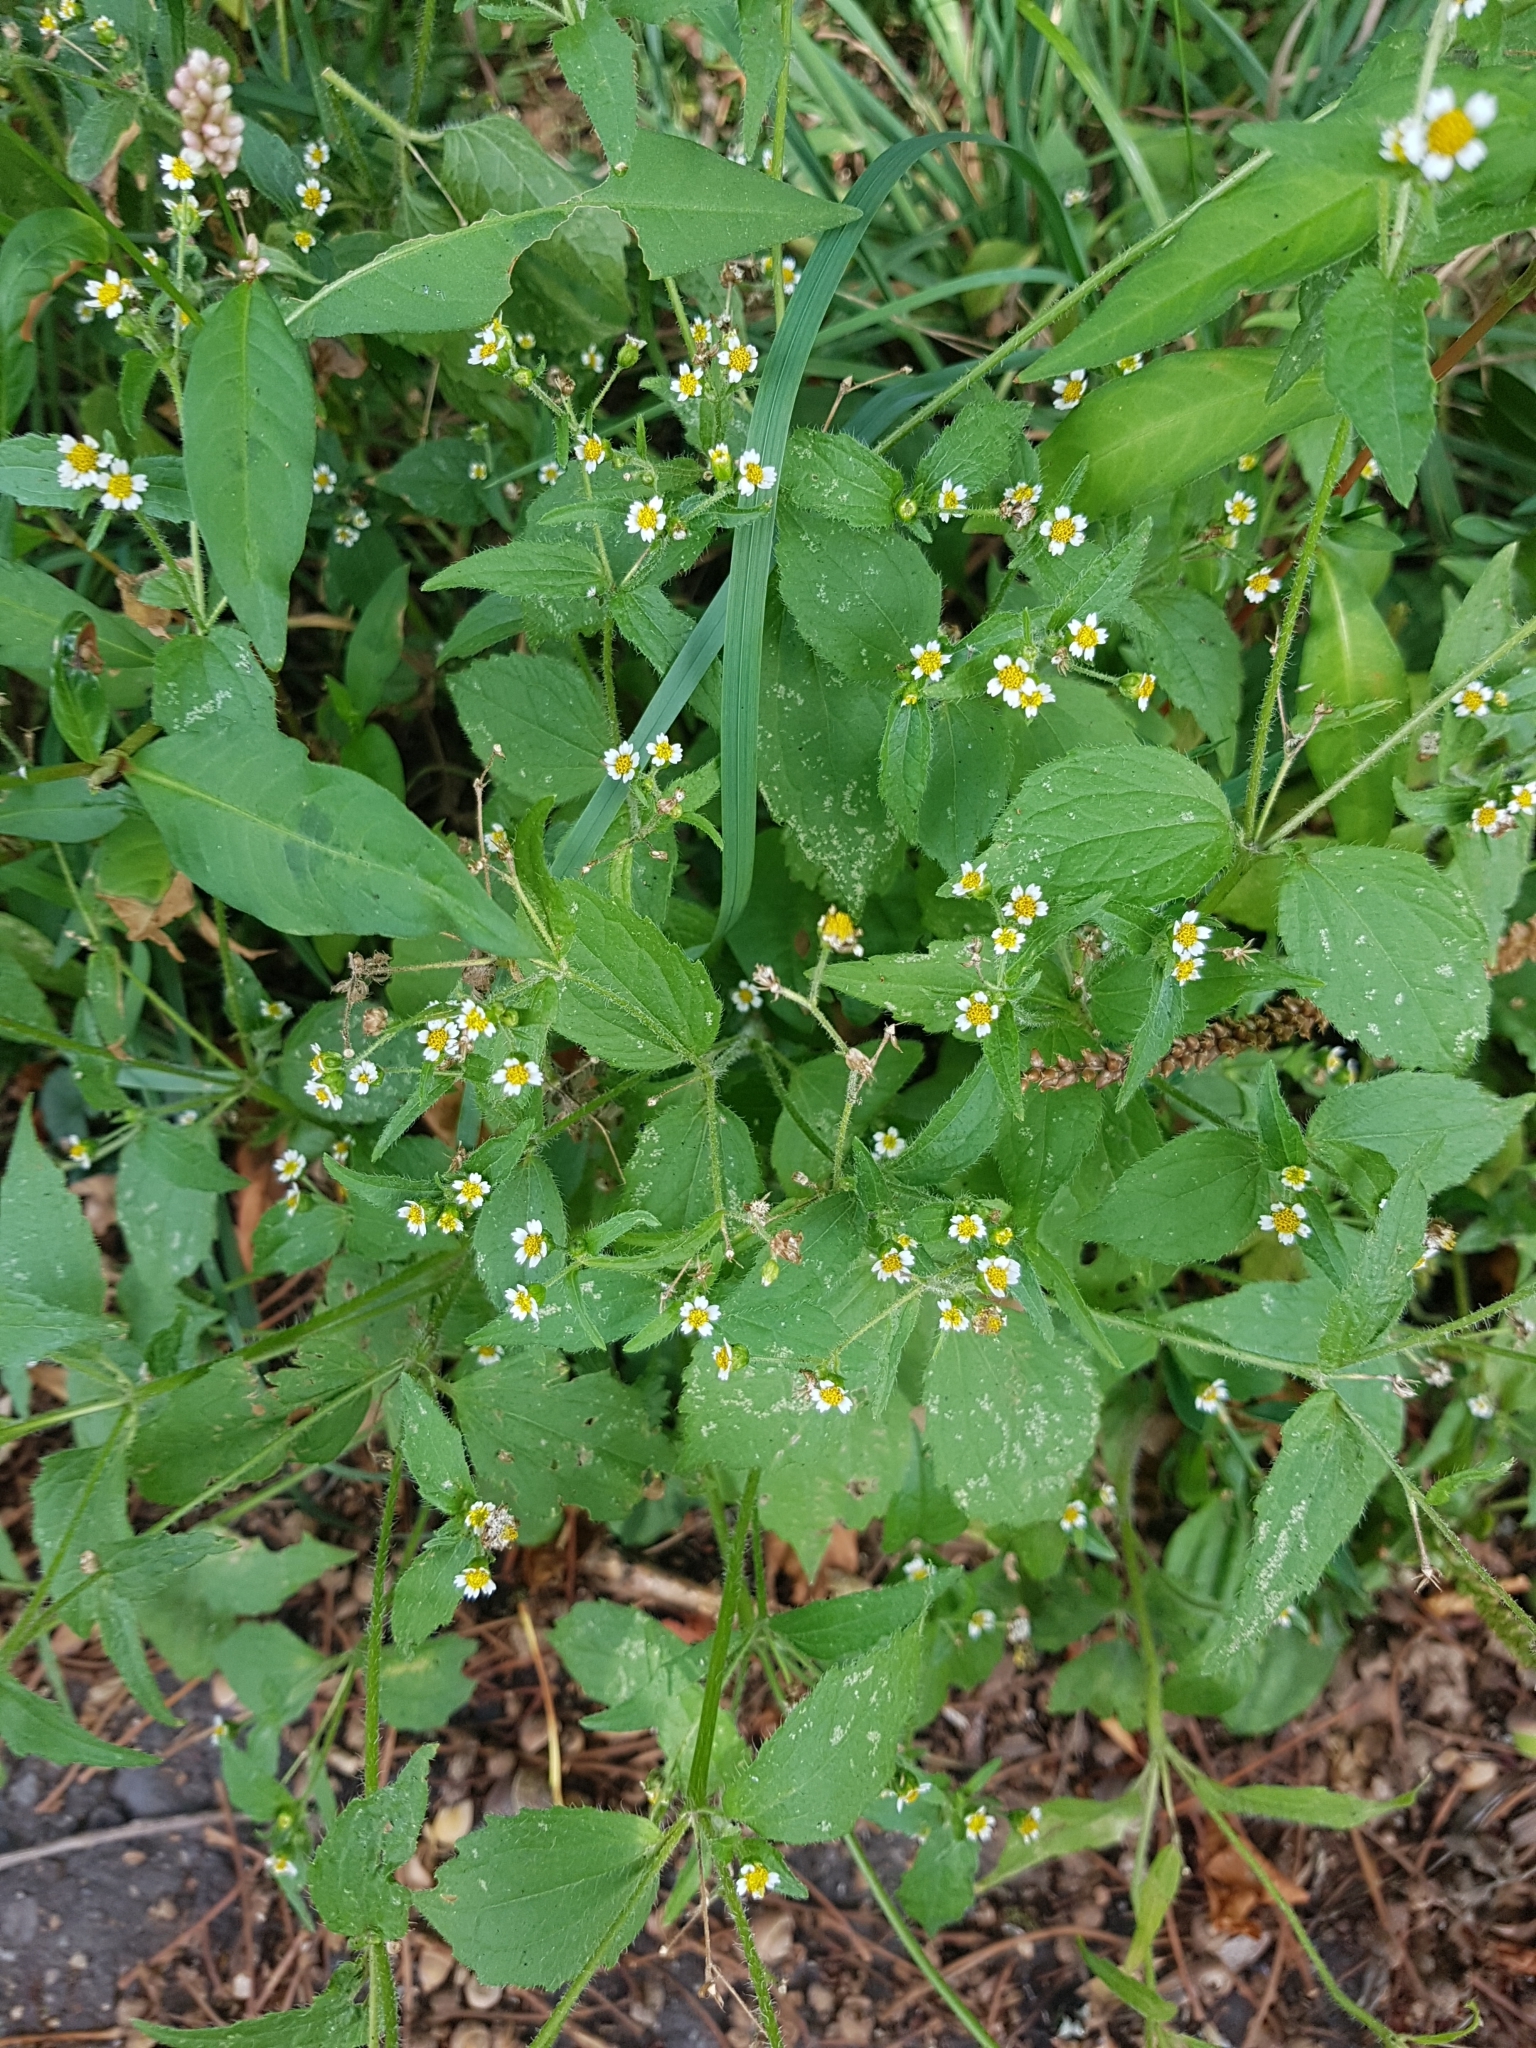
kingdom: Plantae
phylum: Tracheophyta
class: Magnoliopsida
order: Asterales
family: Asteraceae
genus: Galinsoga
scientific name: Galinsoga quadriradiata
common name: Shaggy soldier
